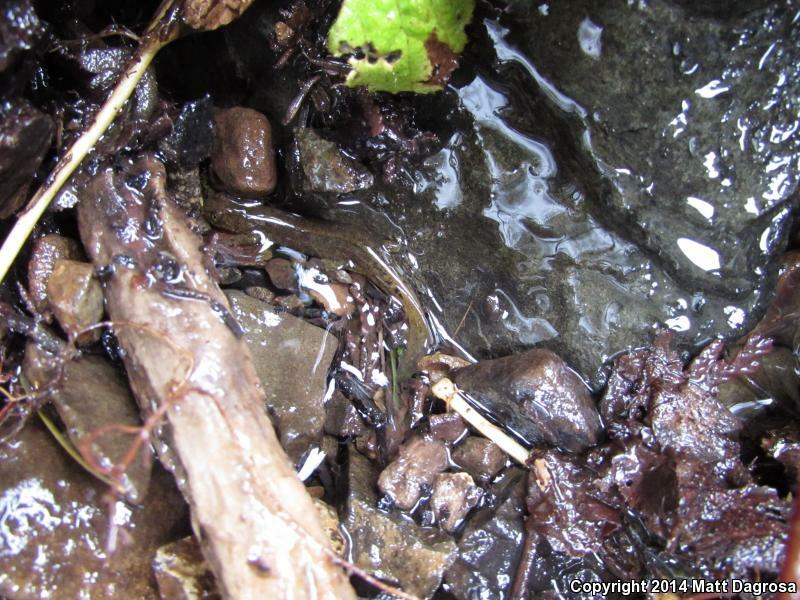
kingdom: Animalia
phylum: Chordata
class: Amphibia
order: Caudata
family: Rhyacotritonidae
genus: Rhyacotriton
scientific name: Rhyacotriton variegatus
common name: Southern torrent salamander
